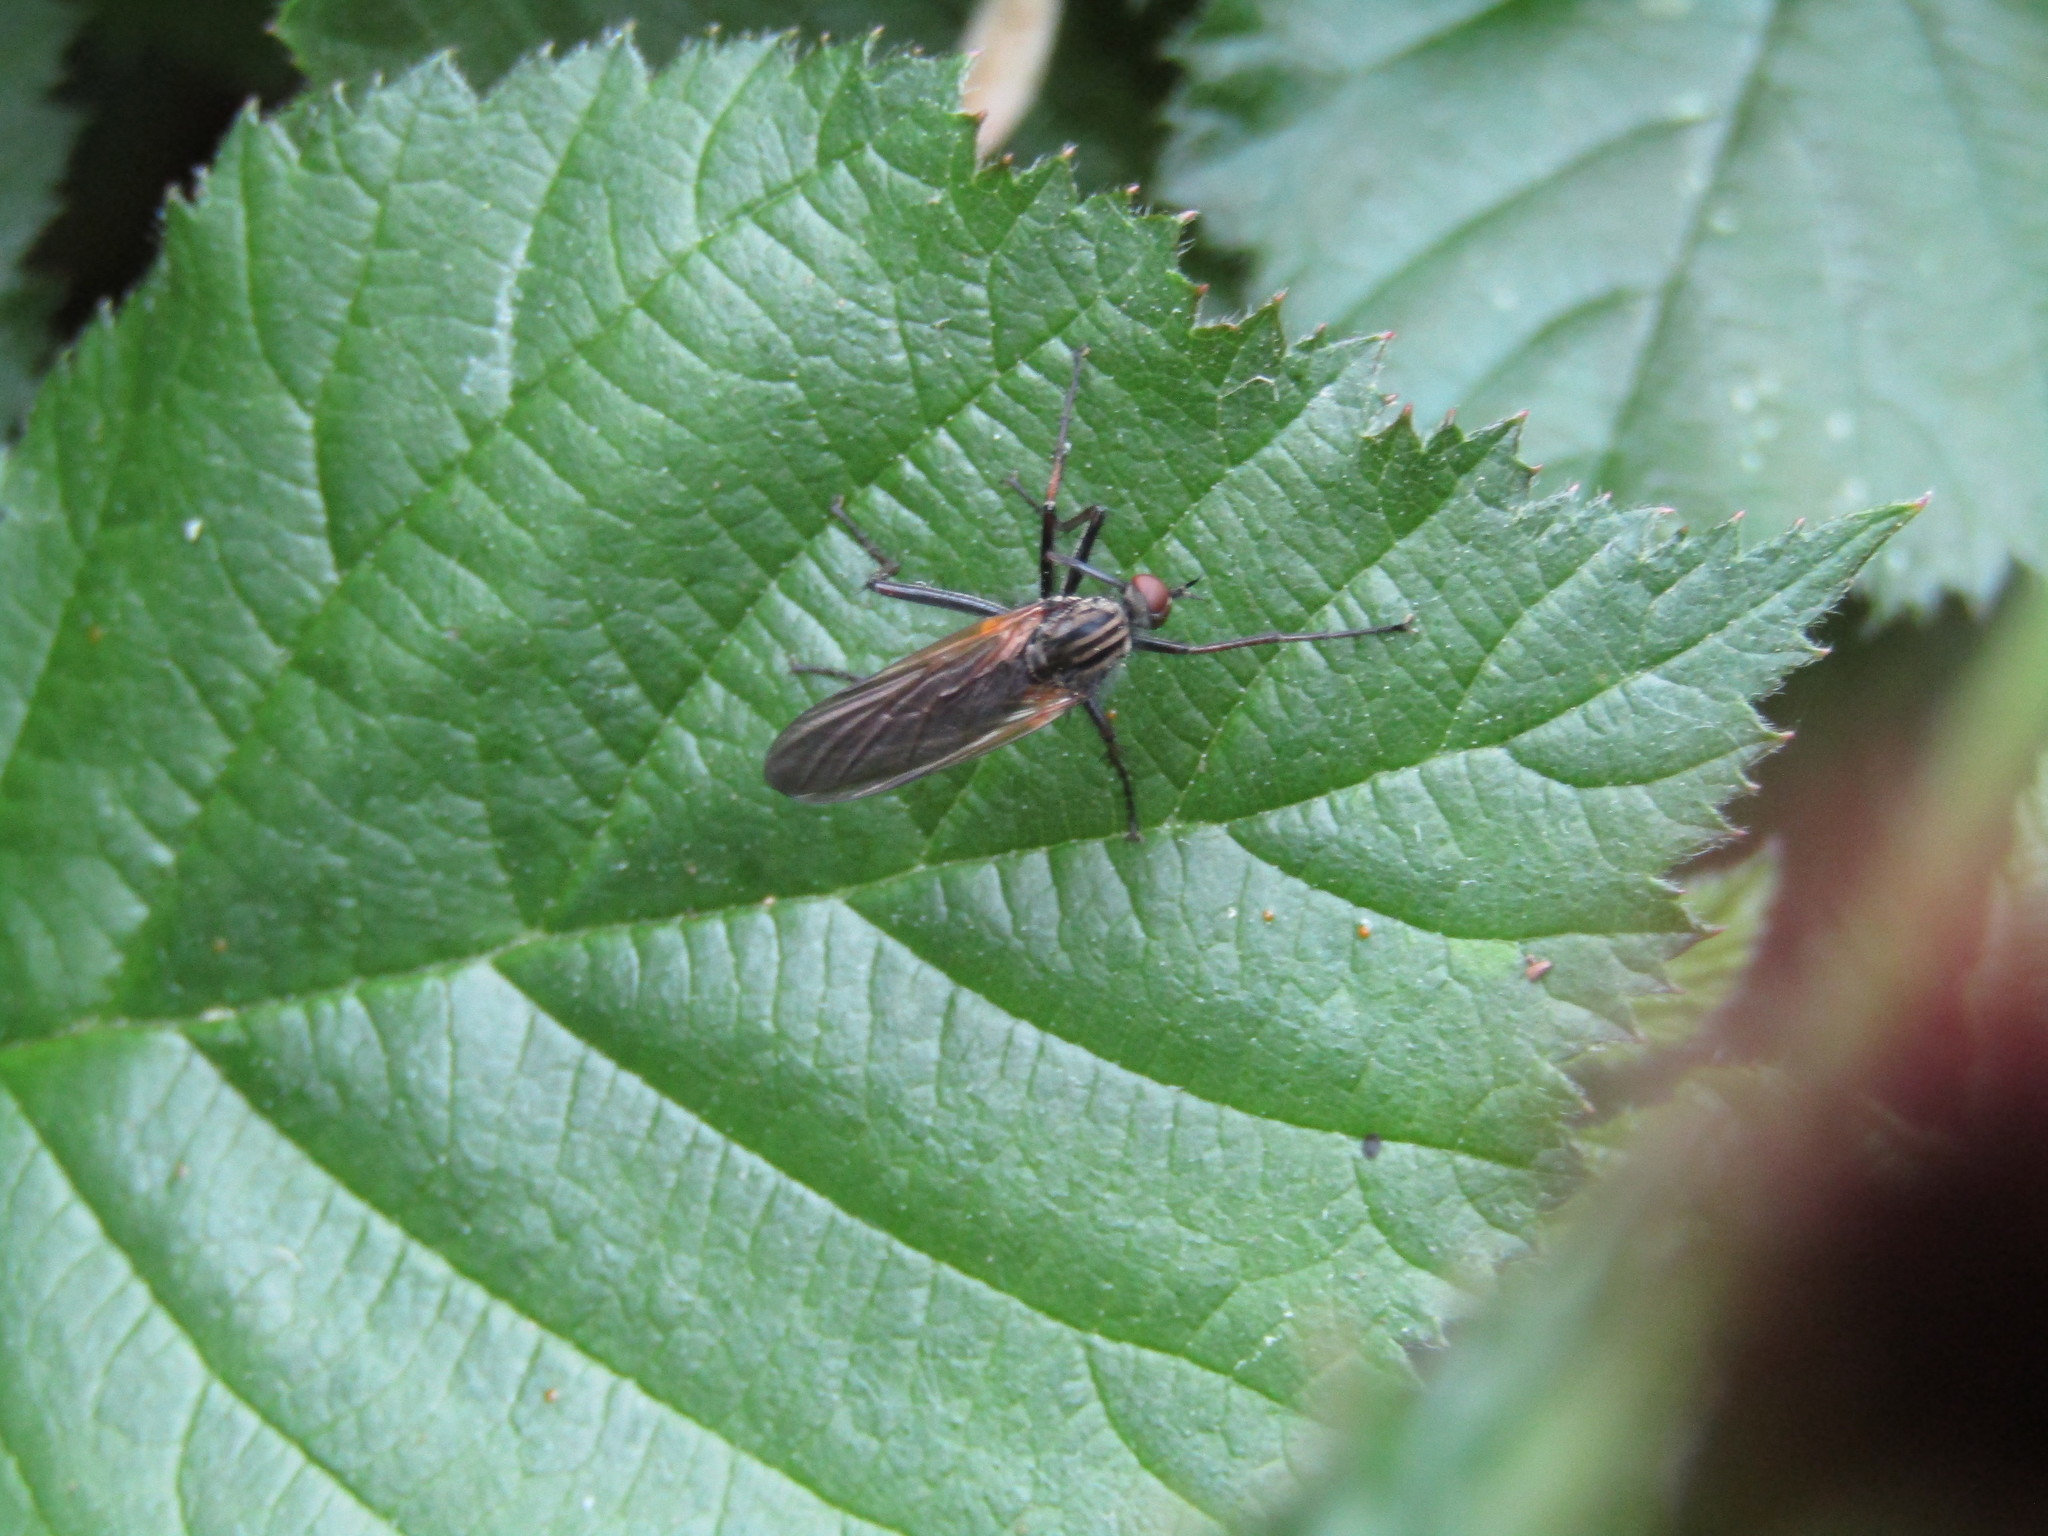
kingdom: Animalia
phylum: Arthropoda
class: Insecta
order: Diptera
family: Empididae
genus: Empis
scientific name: Empis tessellata
